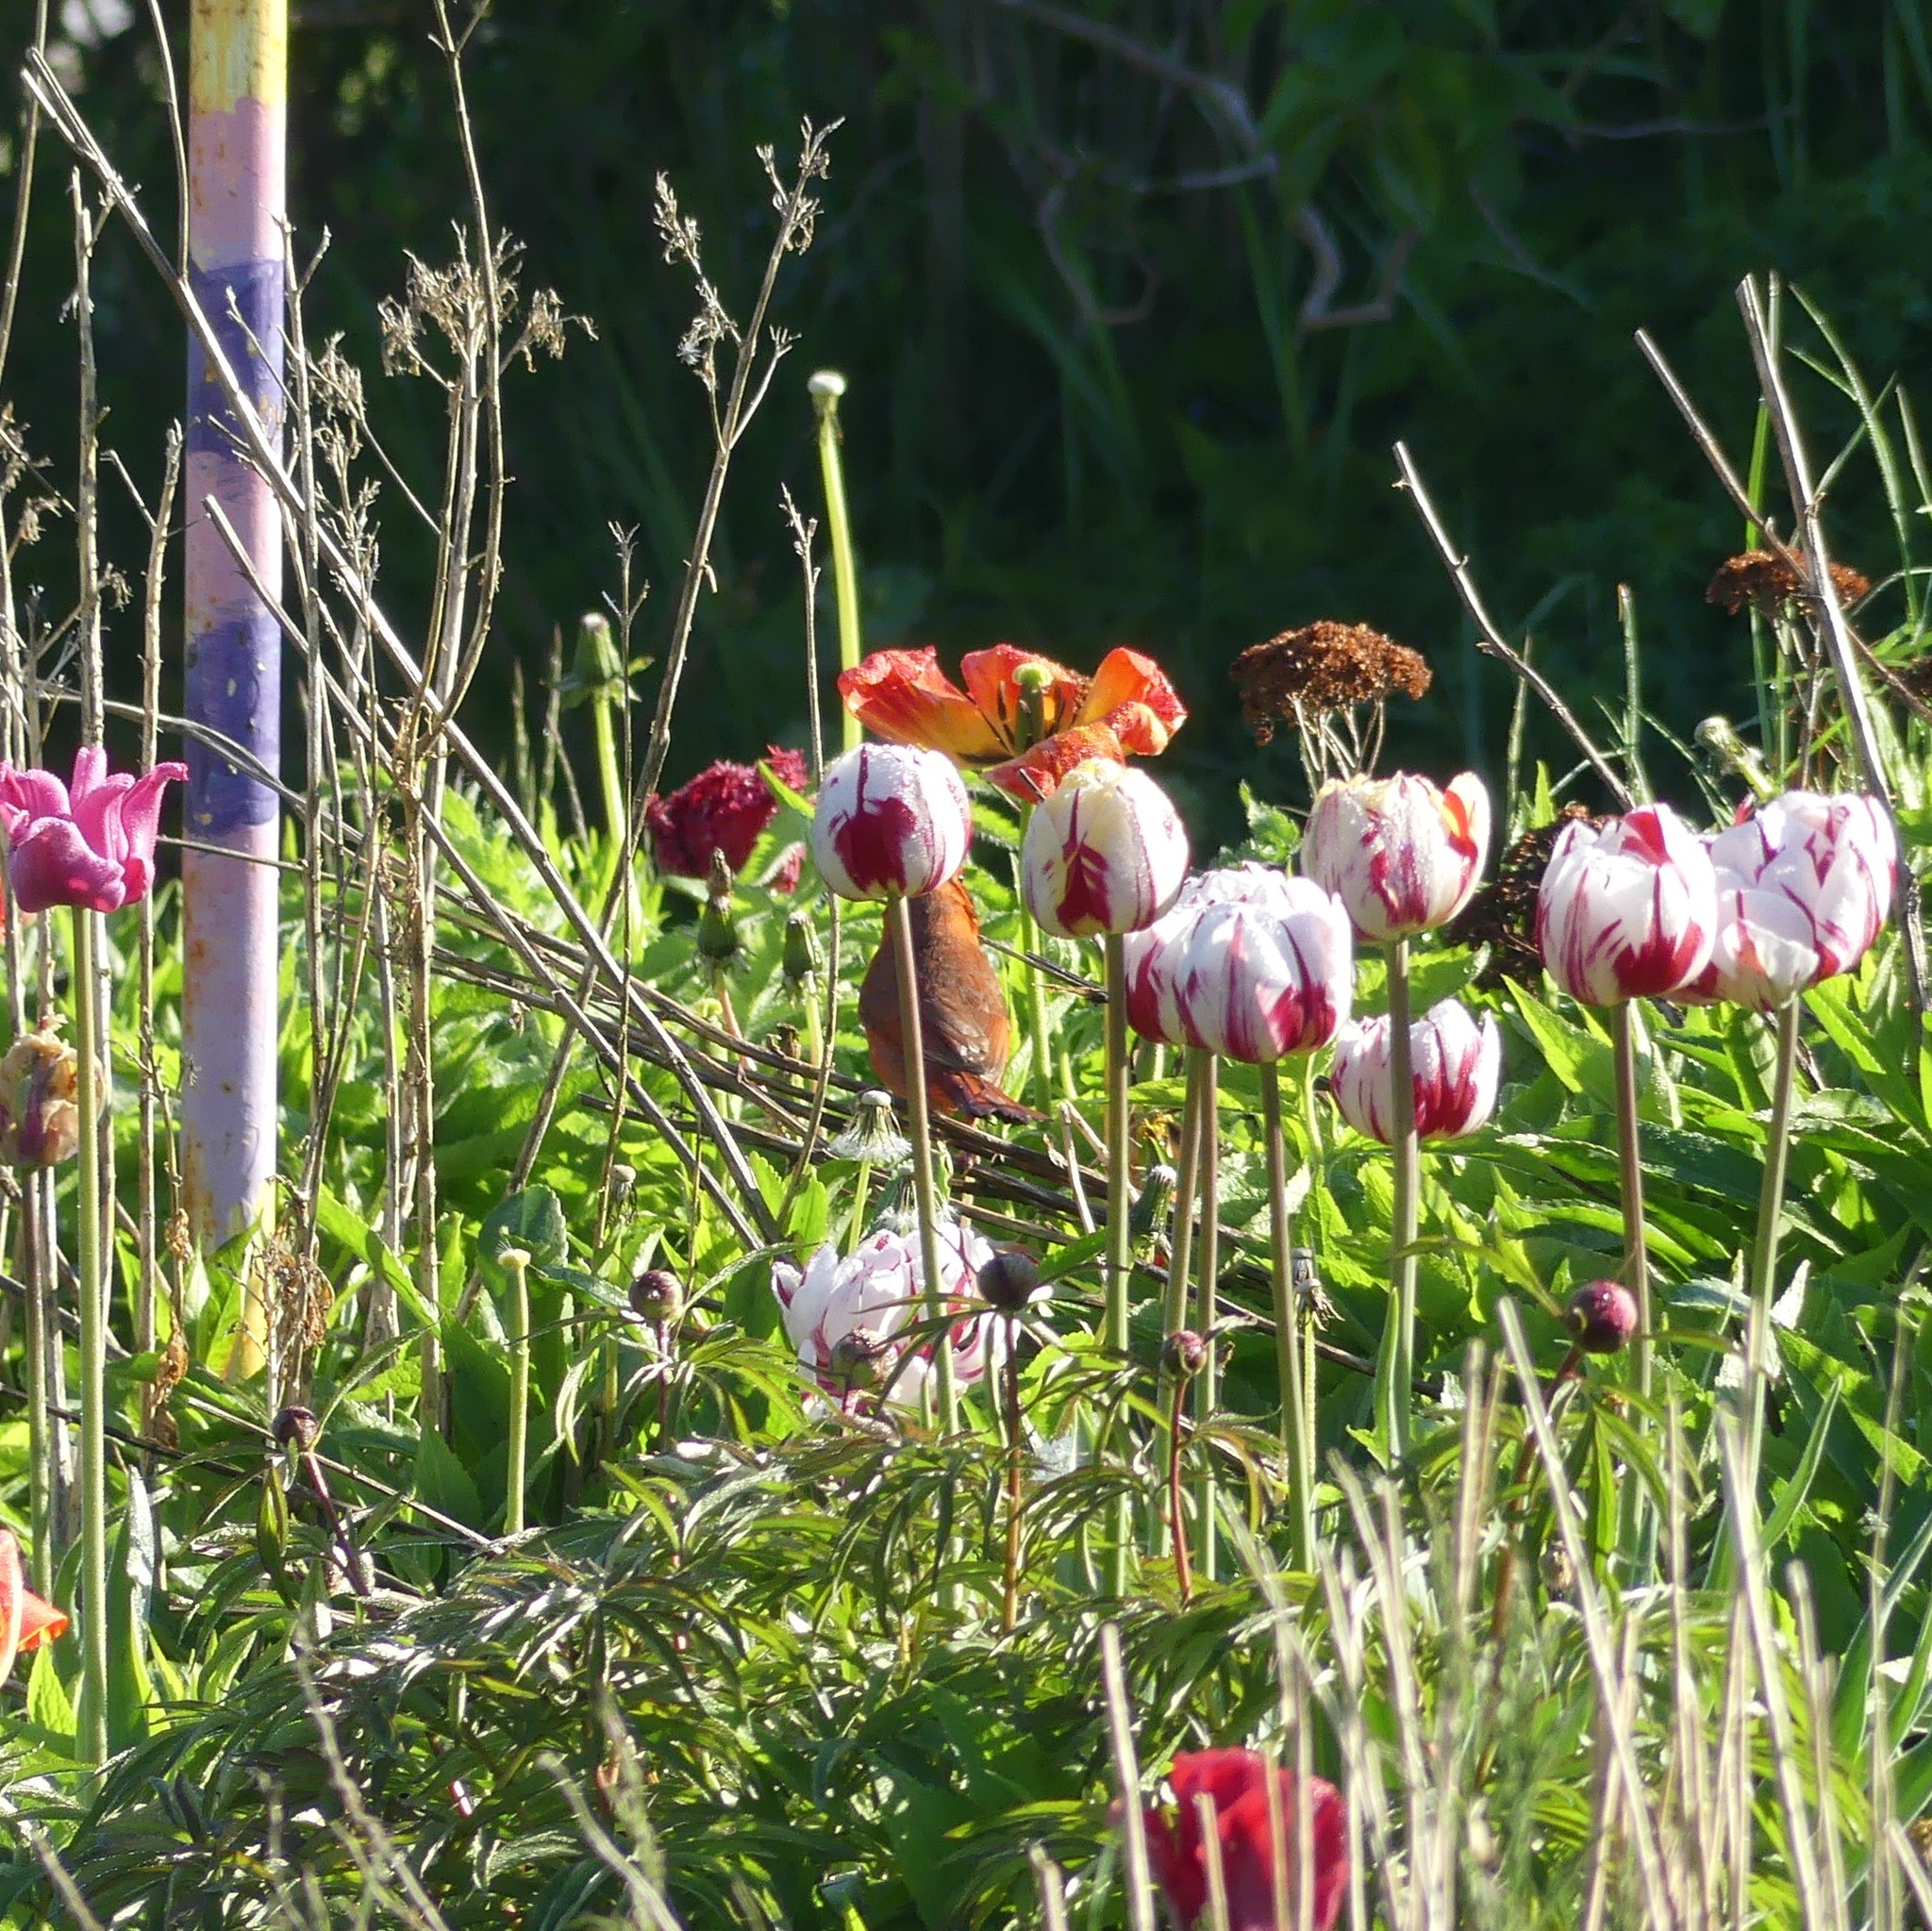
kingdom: Animalia
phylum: Chordata
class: Aves
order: Passeriformes
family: Cardinalidae
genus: Cardinalis
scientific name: Cardinalis cardinalis
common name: Northern cardinal
